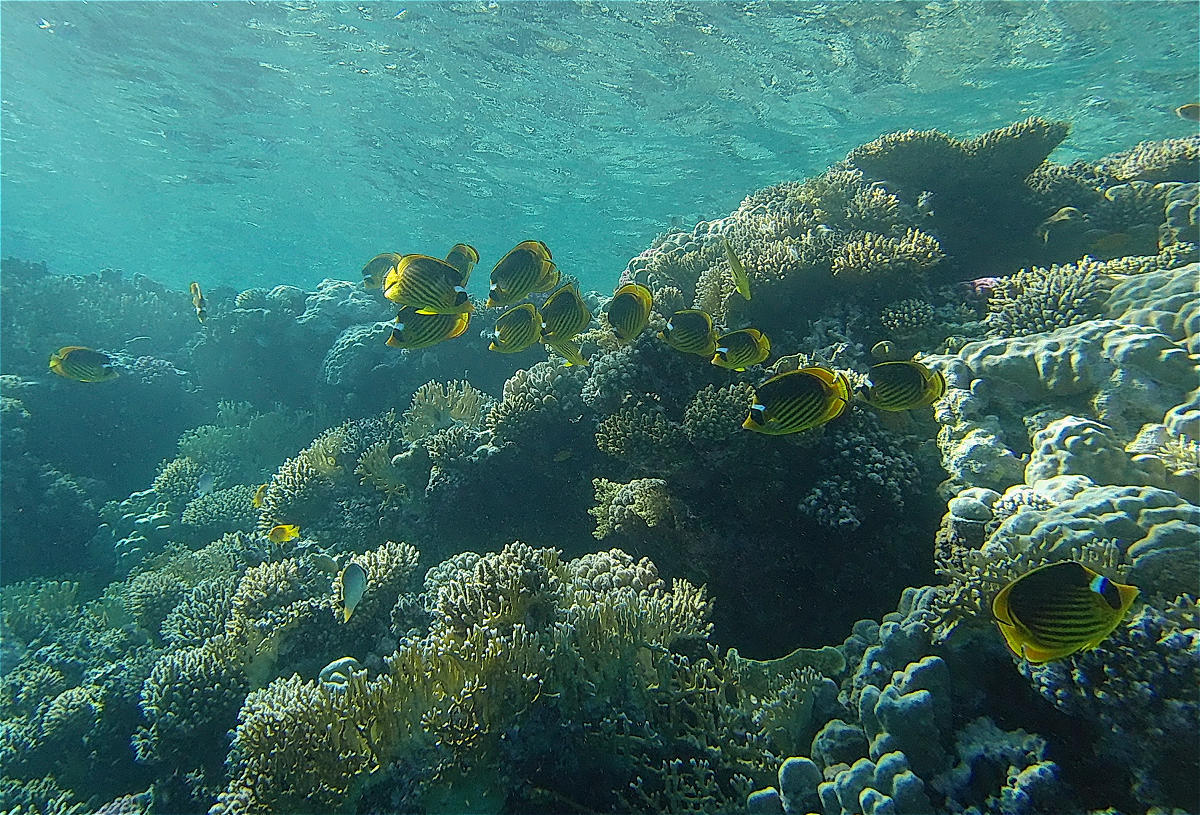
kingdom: Animalia
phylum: Chordata
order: Perciformes
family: Chaetodontidae
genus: Chaetodon
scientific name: Chaetodon fasciatus
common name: Diagonal butterflyfish
